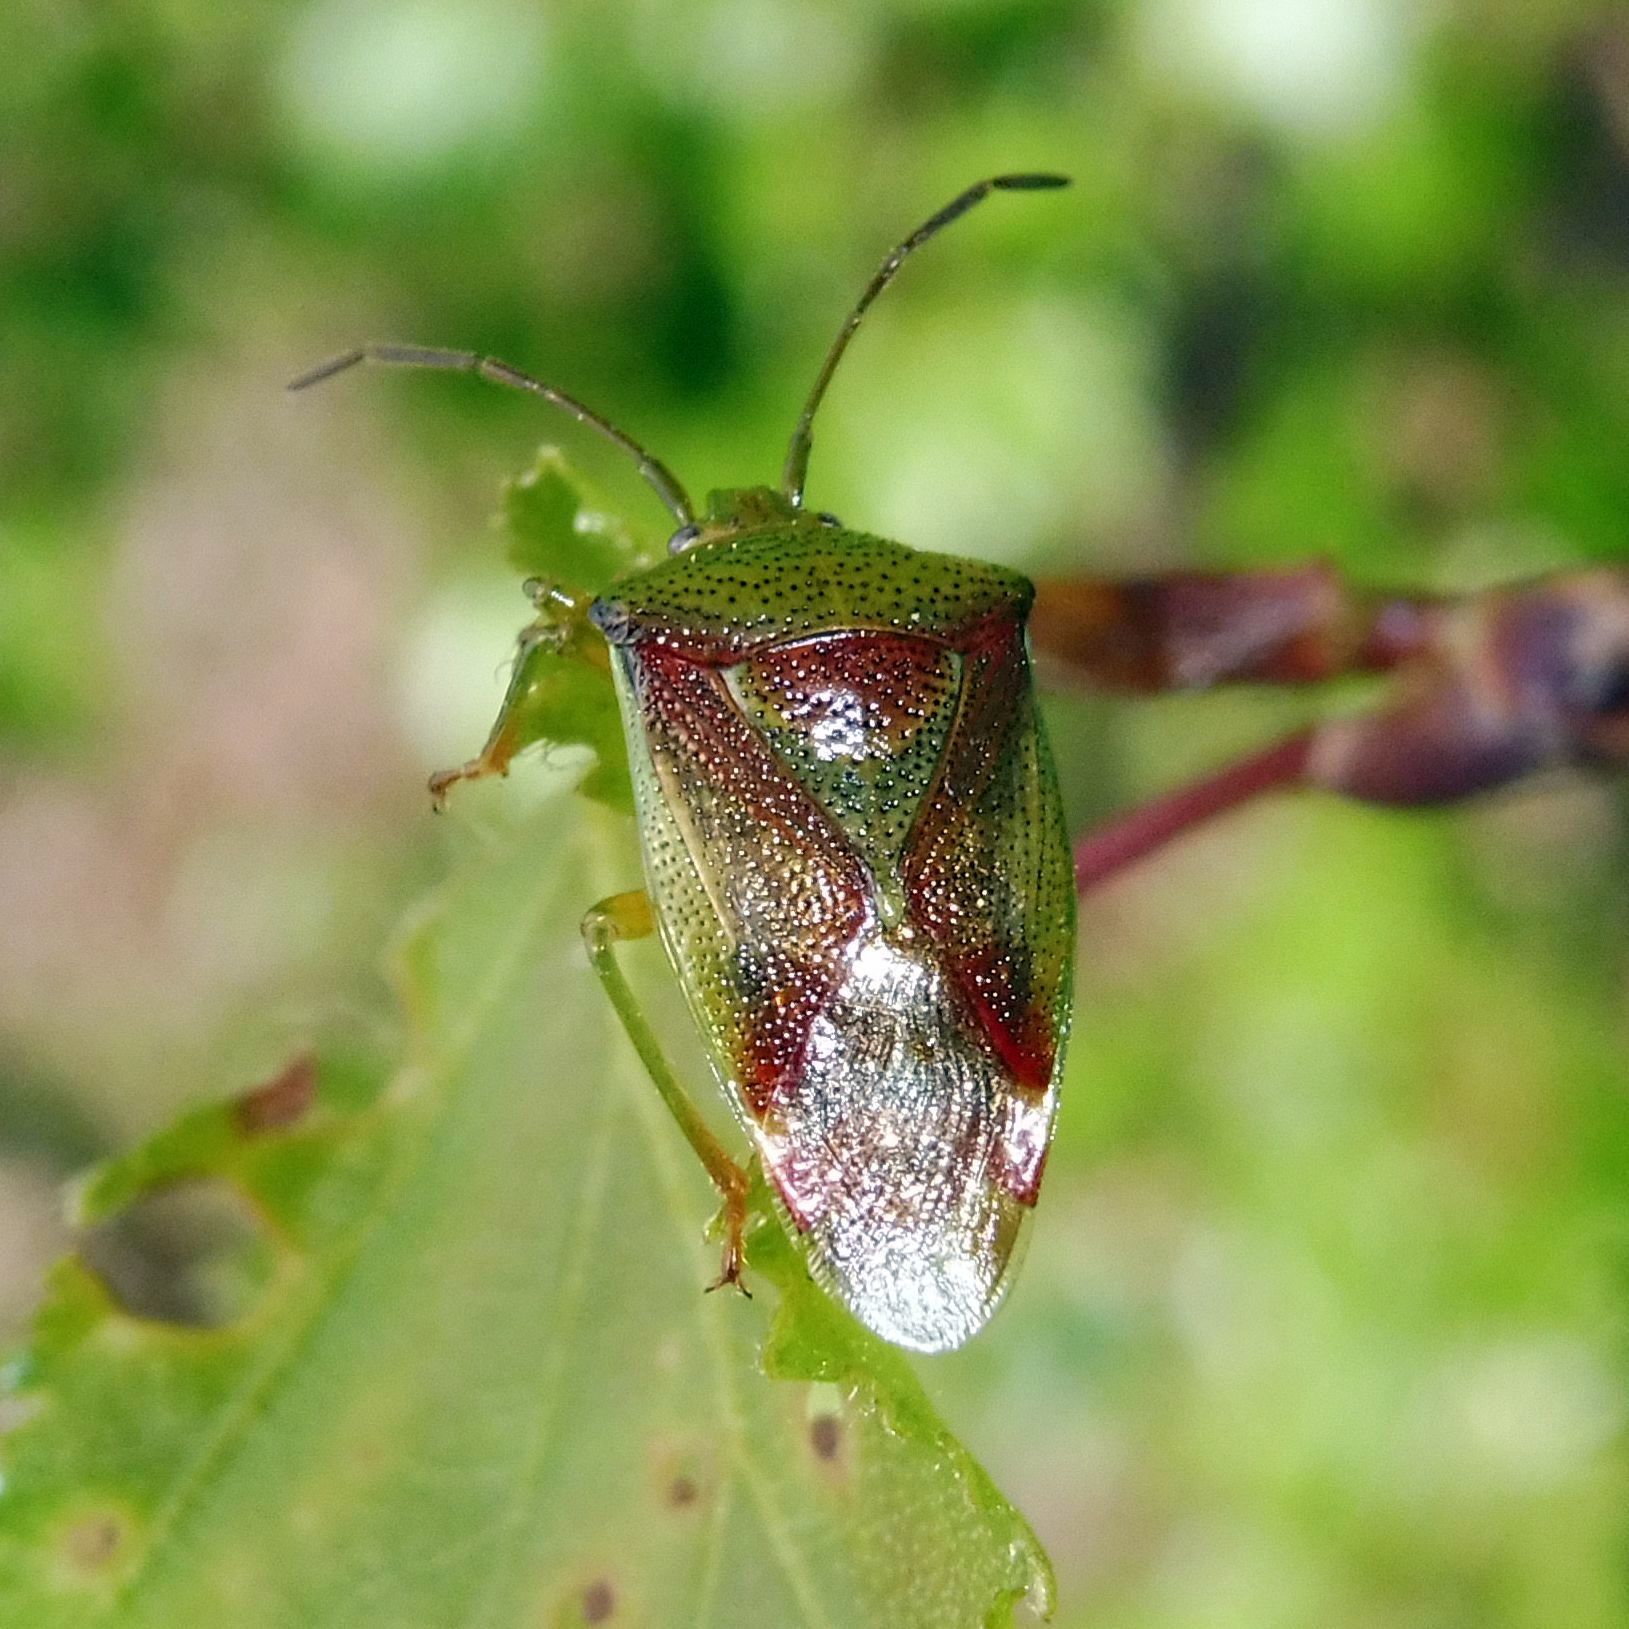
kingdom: Animalia
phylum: Arthropoda
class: Insecta
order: Hemiptera
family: Acanthosomatidae
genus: Elasmostethus
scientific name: Elasmostethus interstinctus
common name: Birch shieldbug
